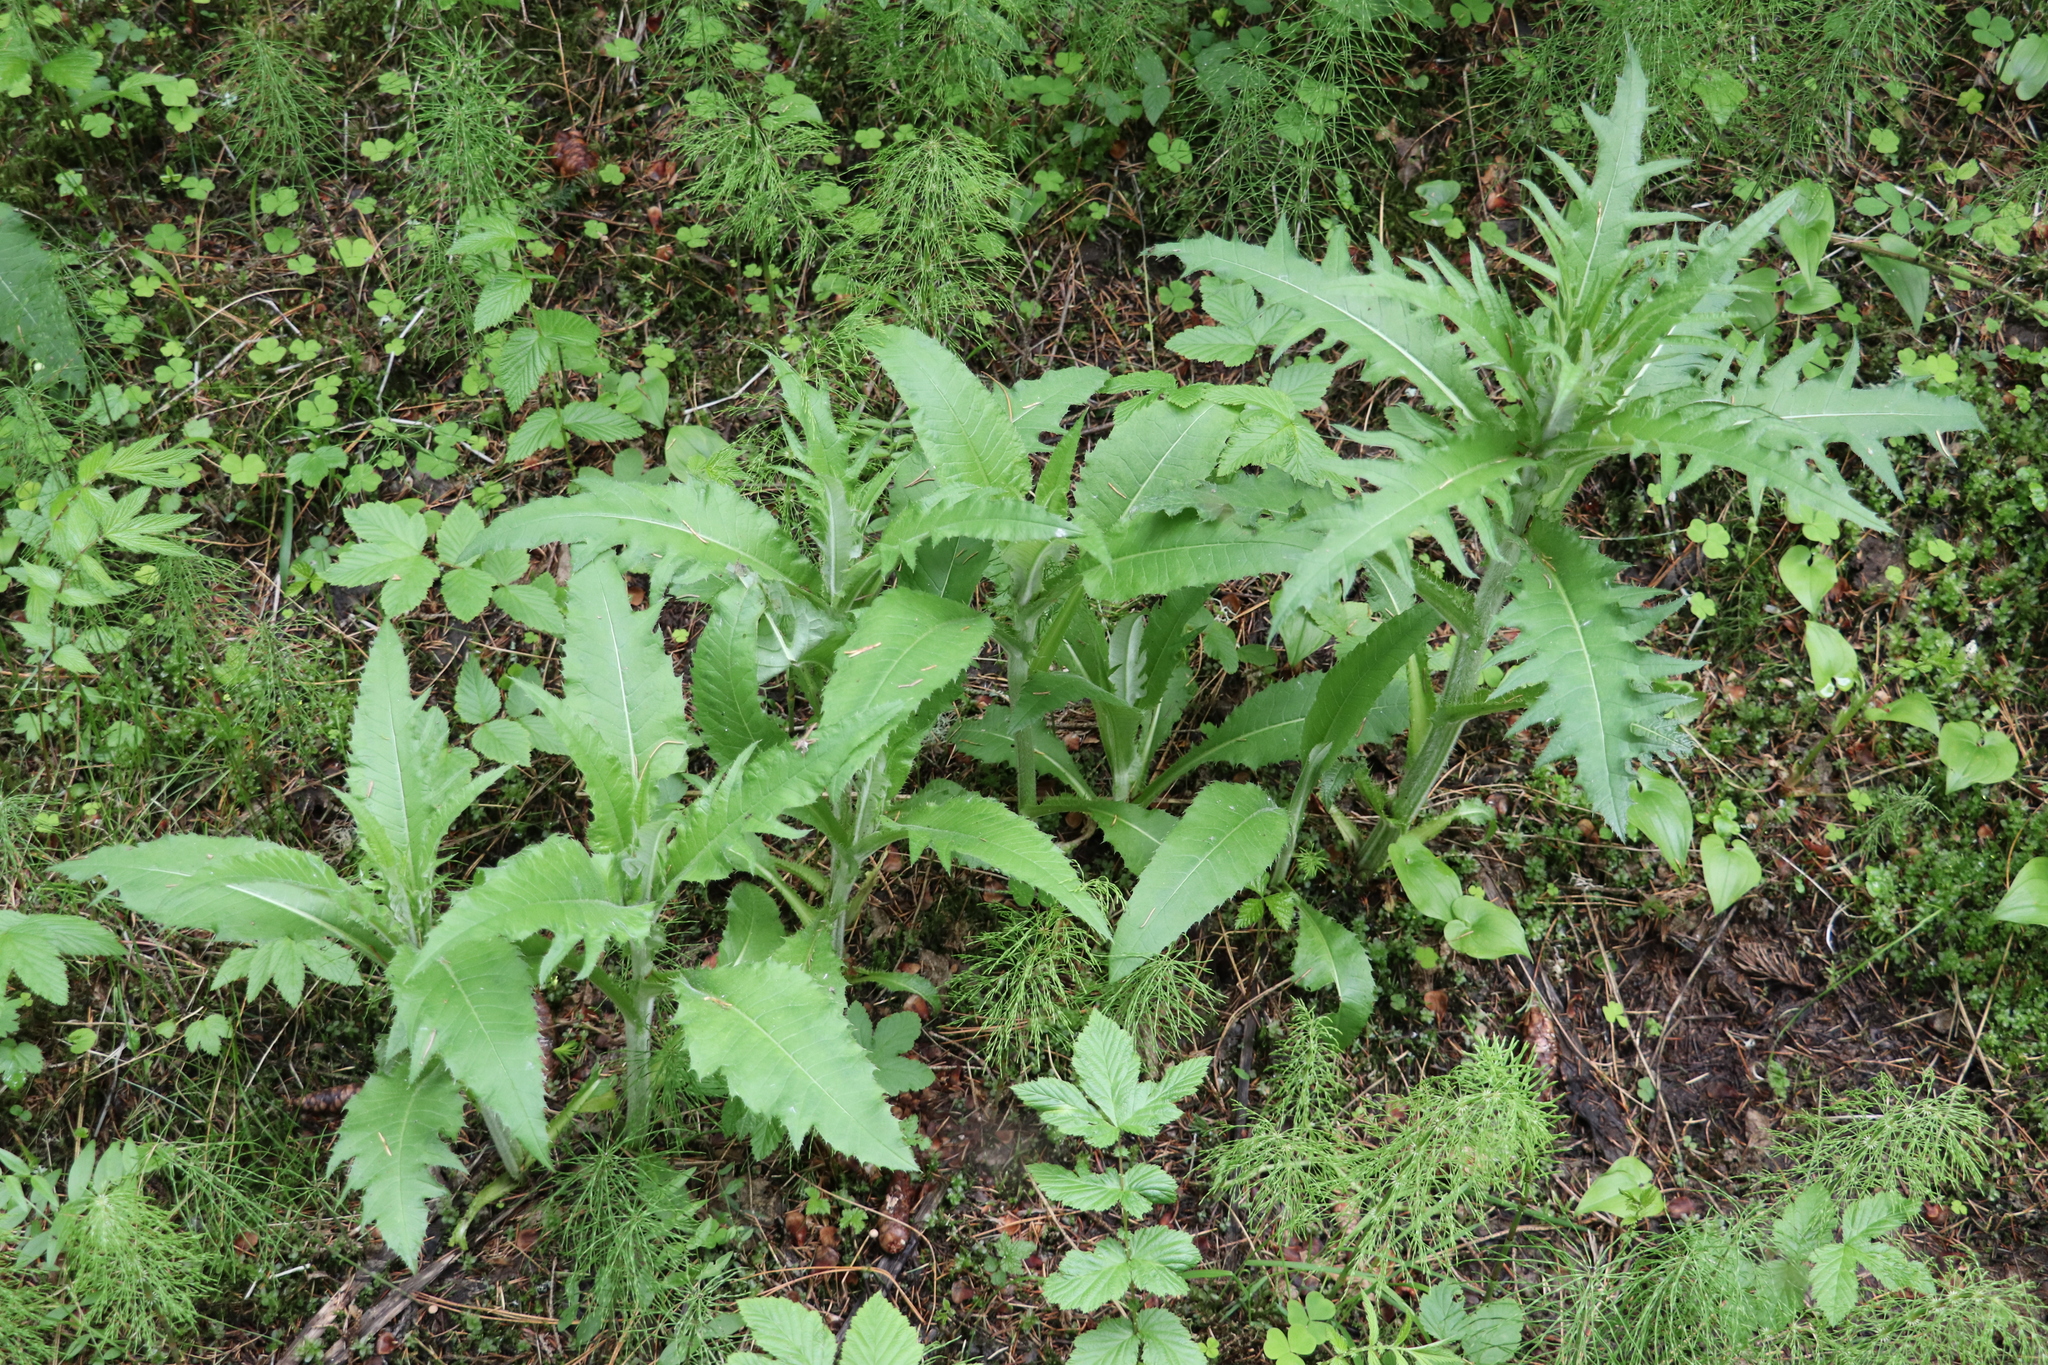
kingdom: Plantae
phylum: Tracheophyta
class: Magnoliopsida
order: Asterales
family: Asteraceae
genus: Cirsium
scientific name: Cirsium heterophyllum
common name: Melancholy thistle
